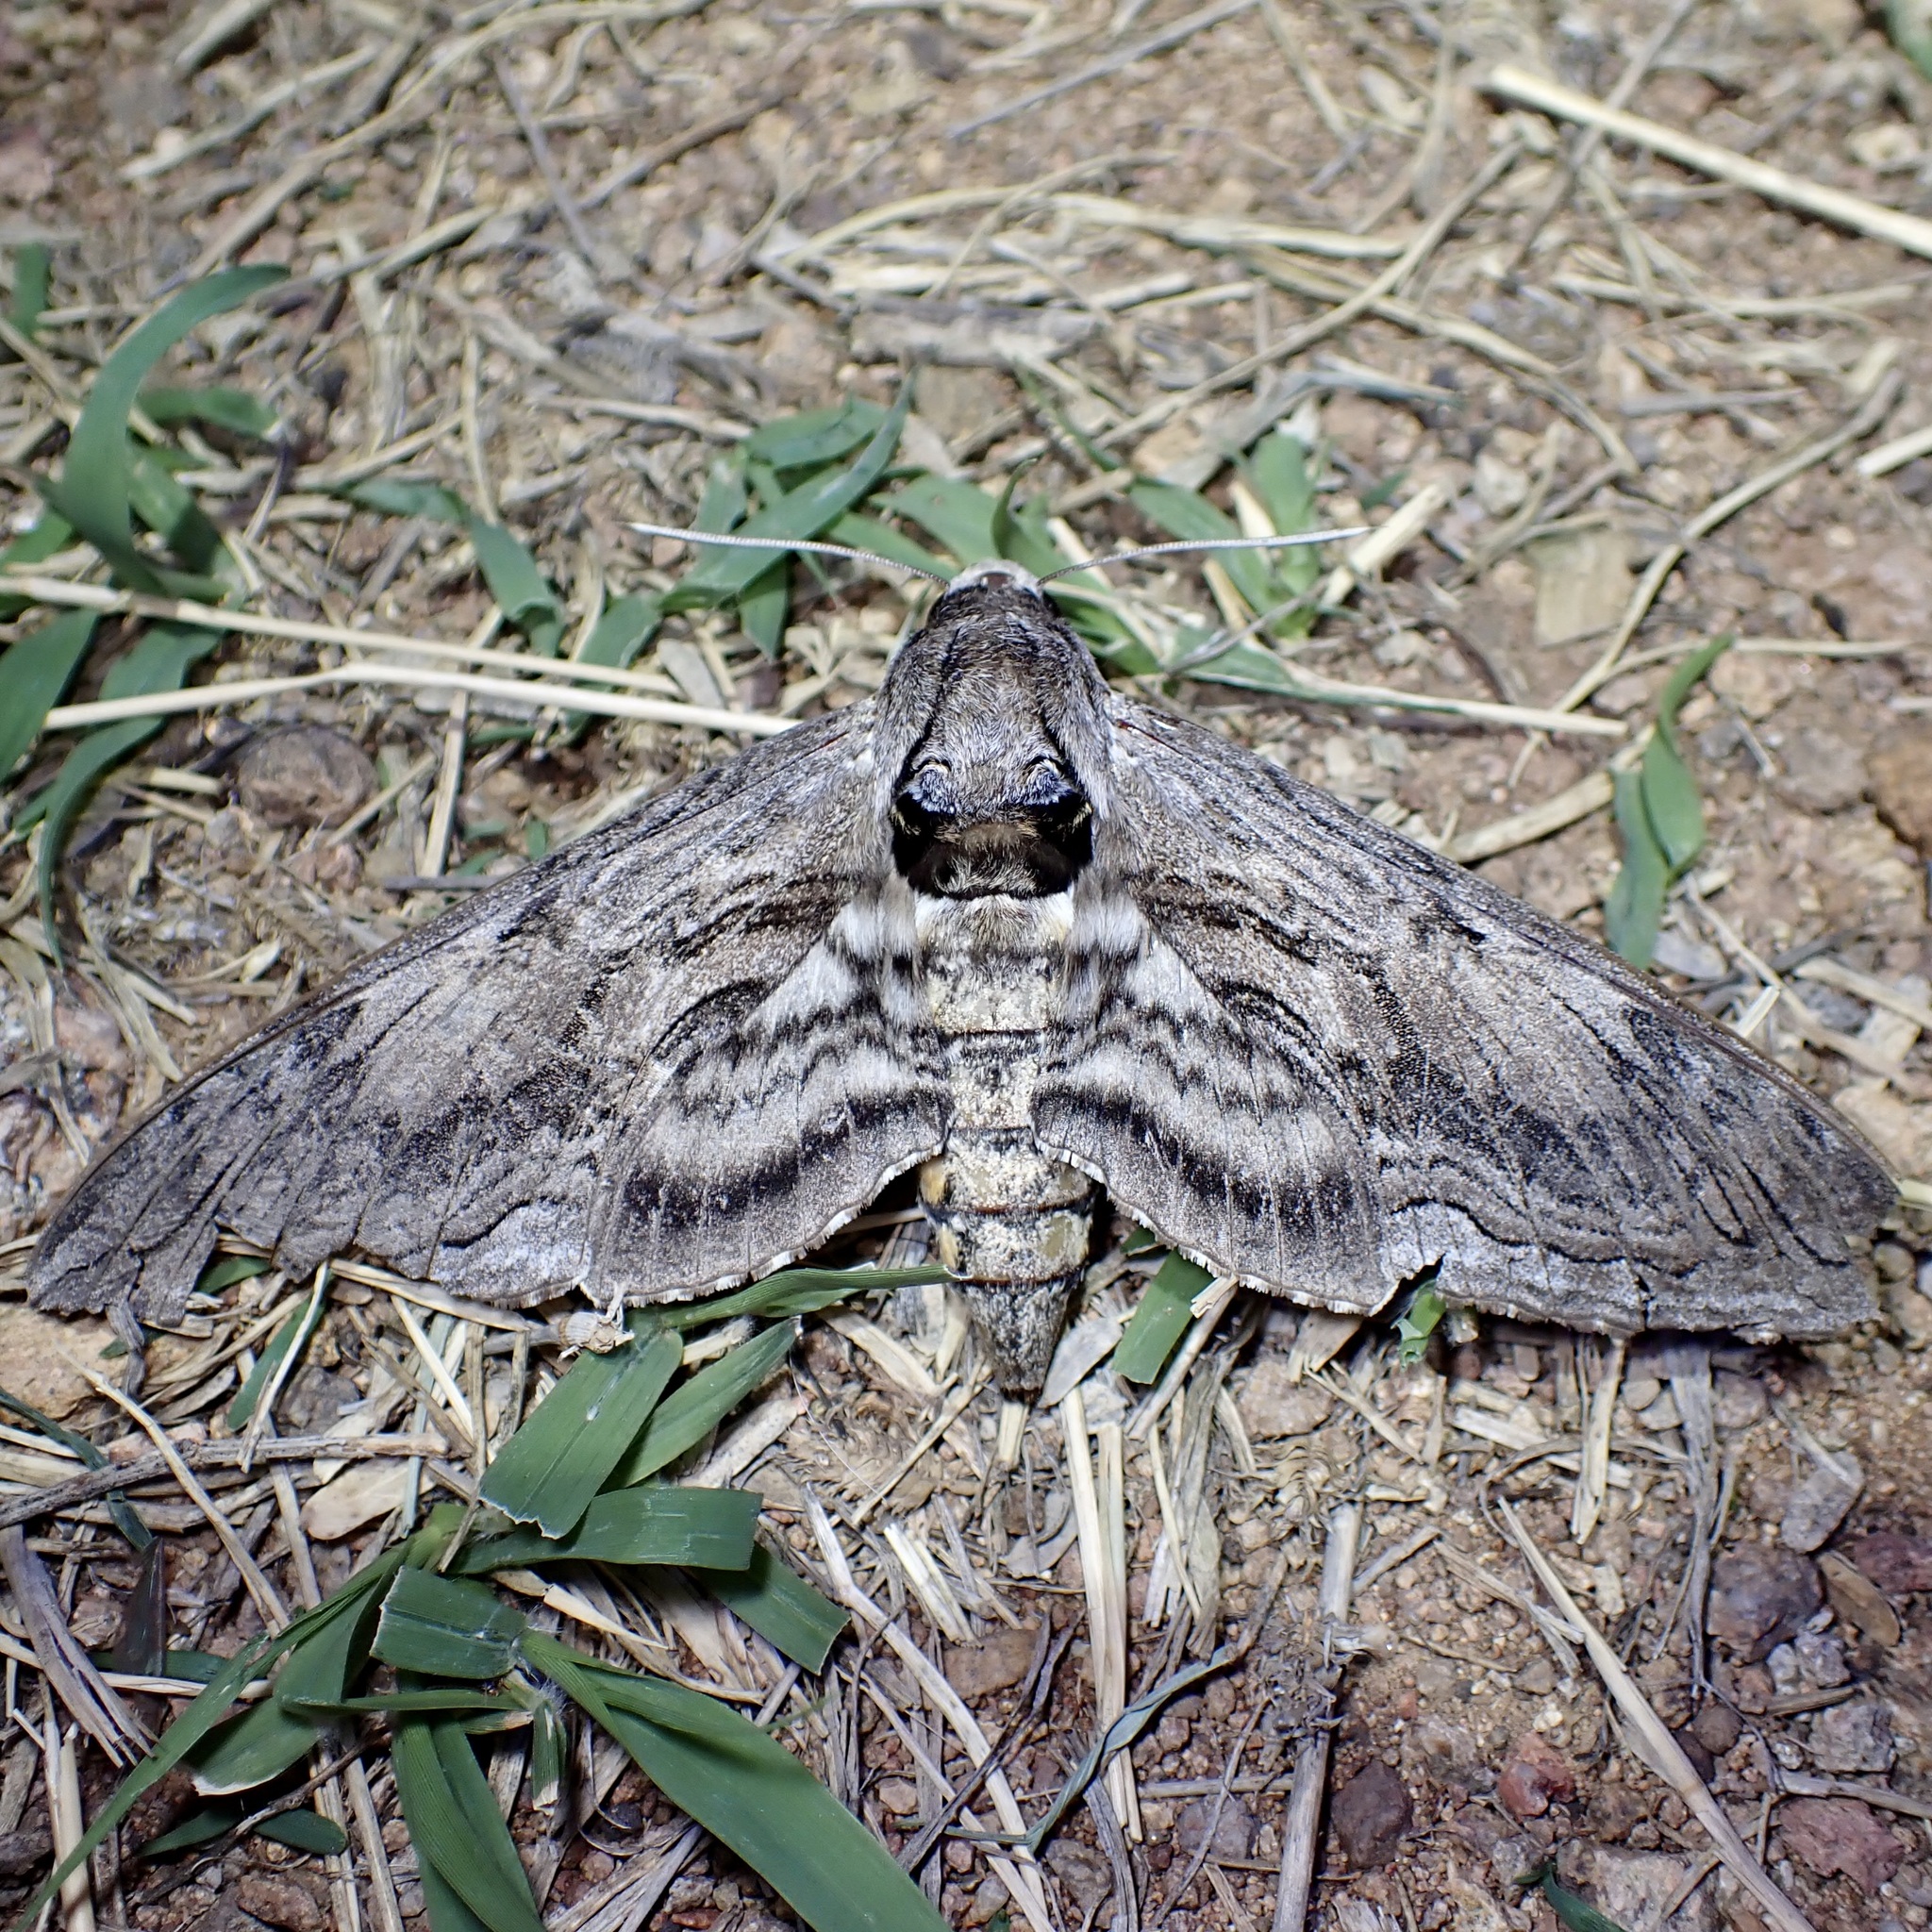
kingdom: Animalia
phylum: Arthropoda
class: Insecta
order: Lepidoptera
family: Sphingidae
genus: Manduca
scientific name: Manduca quinquemaculatus
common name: Five-spotted hawk-moth
